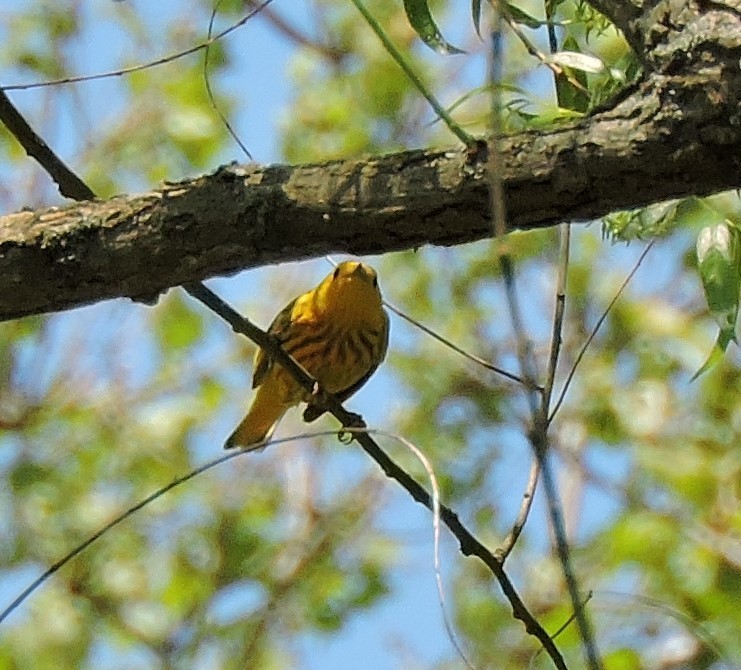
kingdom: Animalia
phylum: Chordata
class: Aves
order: Passeriformes
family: Parulidae
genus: Setophaga
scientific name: Setophaga petechia
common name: Yellow warbler
